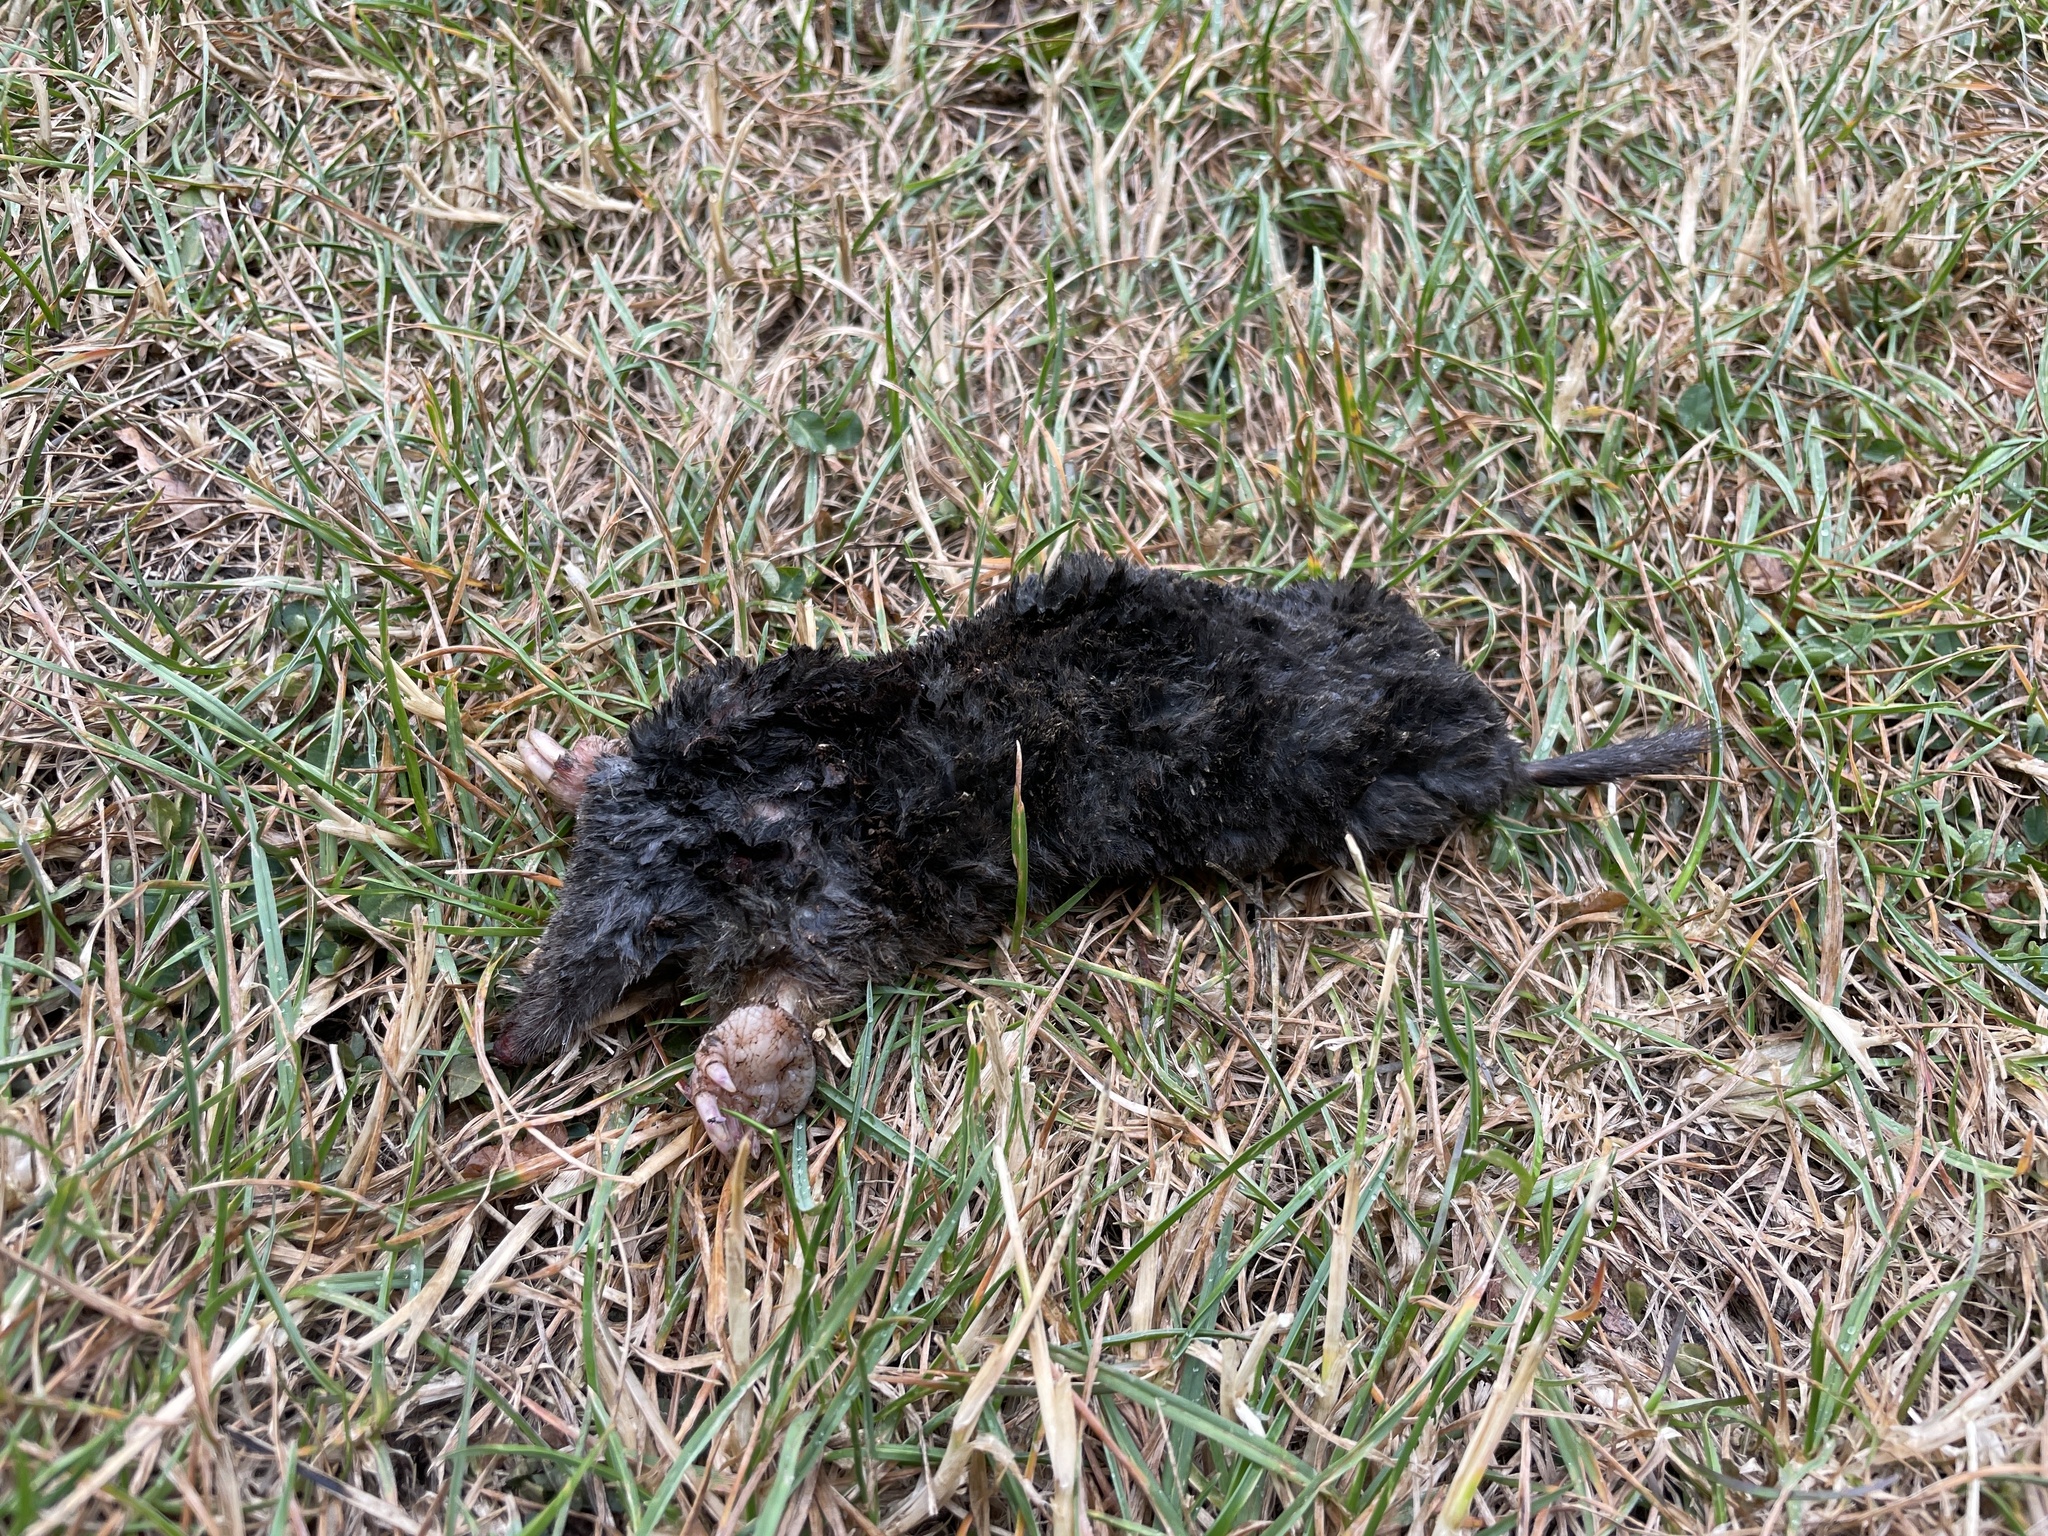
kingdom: Animalia
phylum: Chordata
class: Mammalia
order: Soricomorpha
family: Talpidae
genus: Talpa
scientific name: Talpa europaea
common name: European mole
